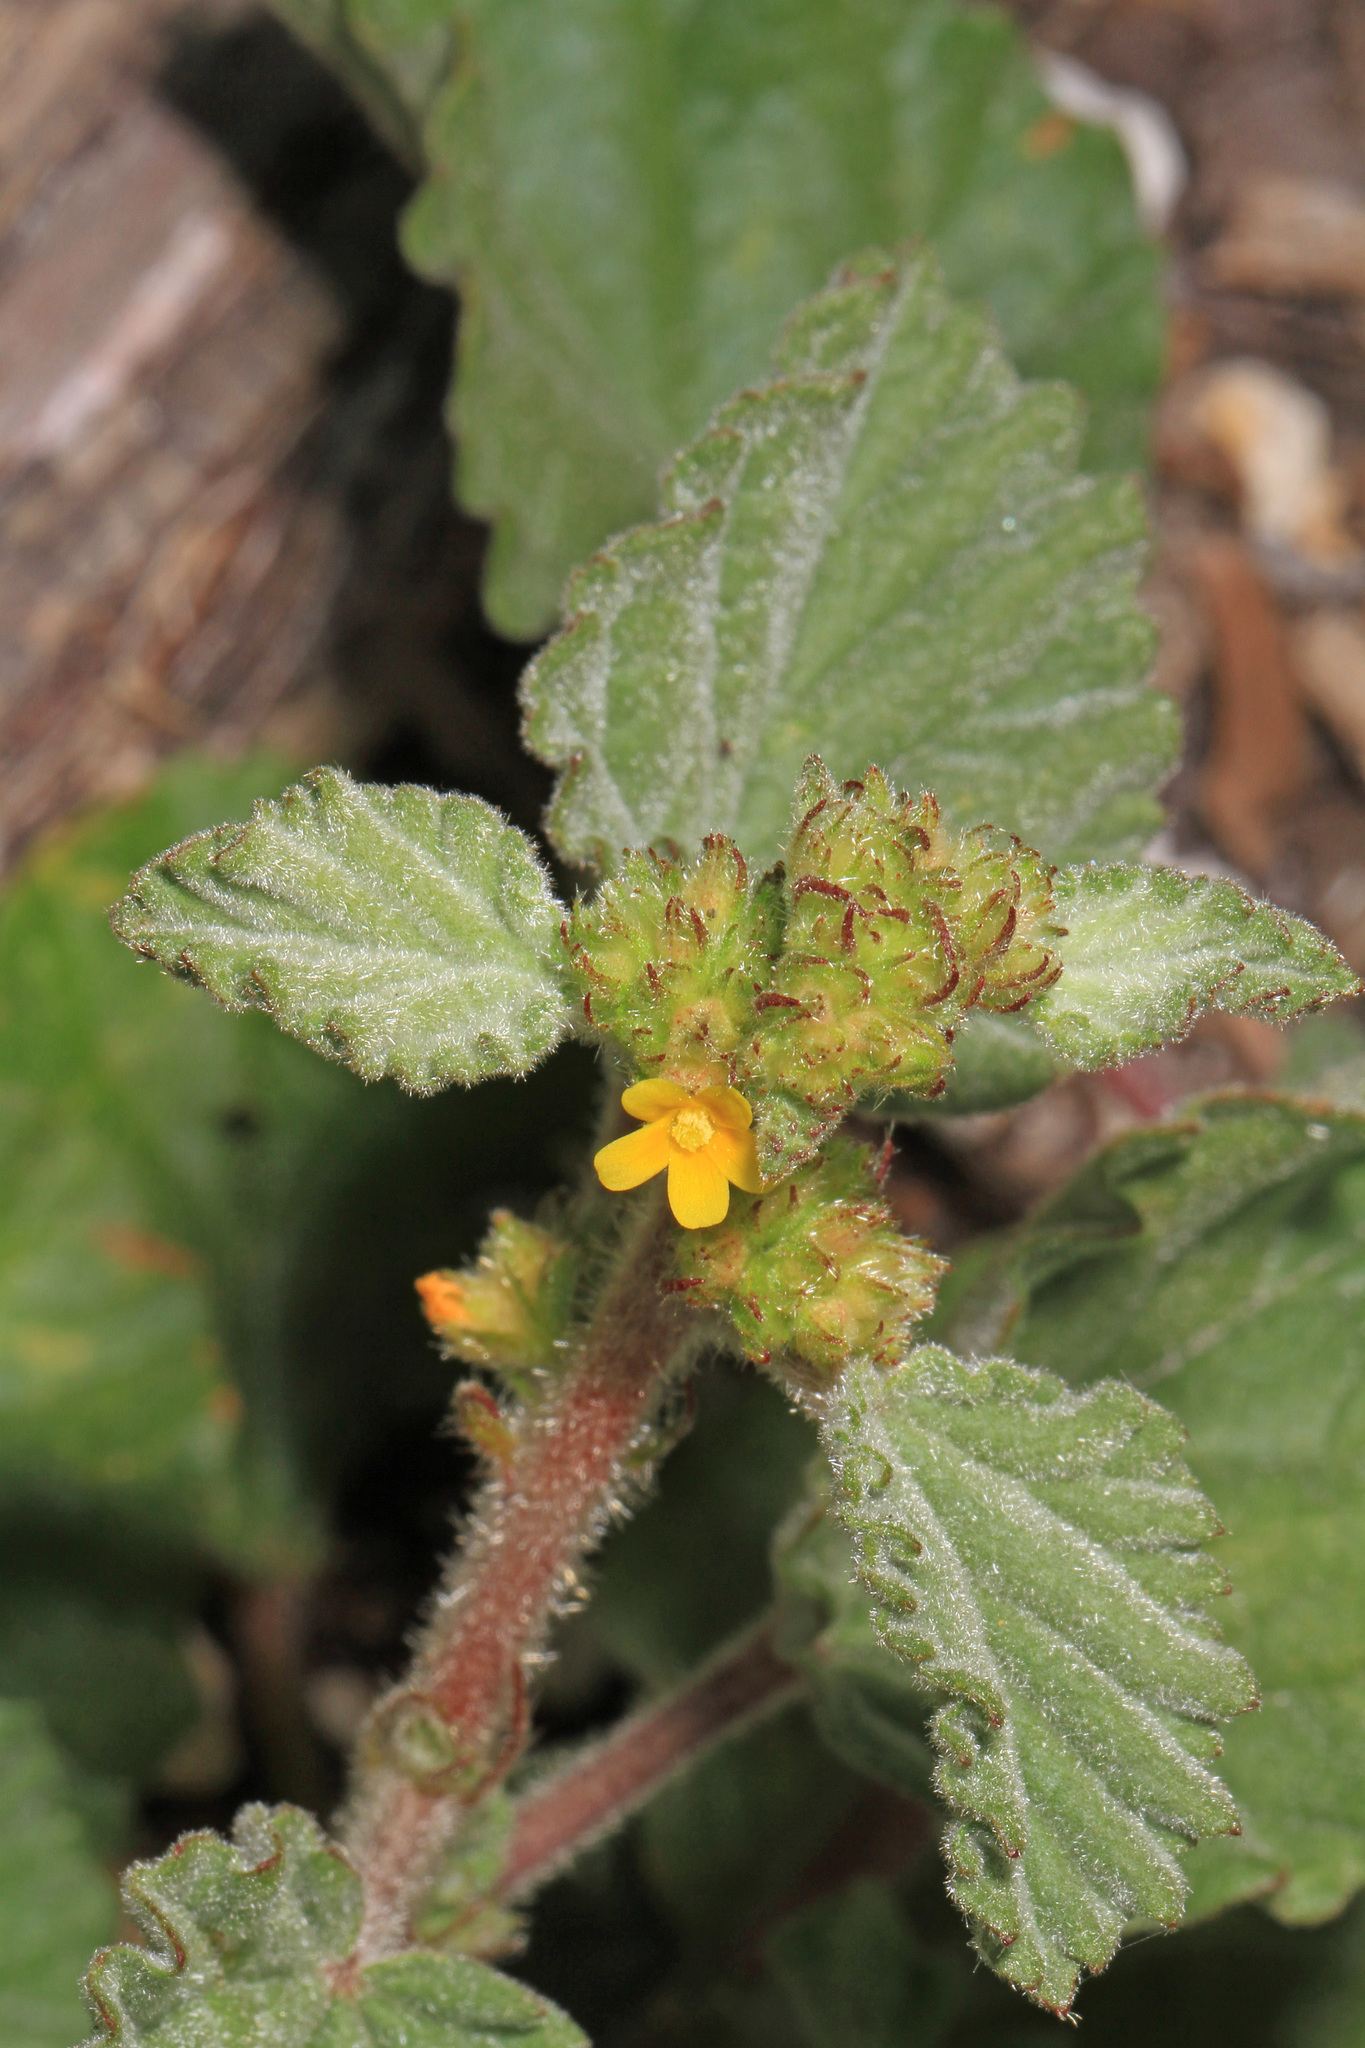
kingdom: Plantae
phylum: Tracheophyta
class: Magnoliopsida
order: Malvales
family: Malvaceae
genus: Waltheria
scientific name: Waltheria indica
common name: Leather-coat
